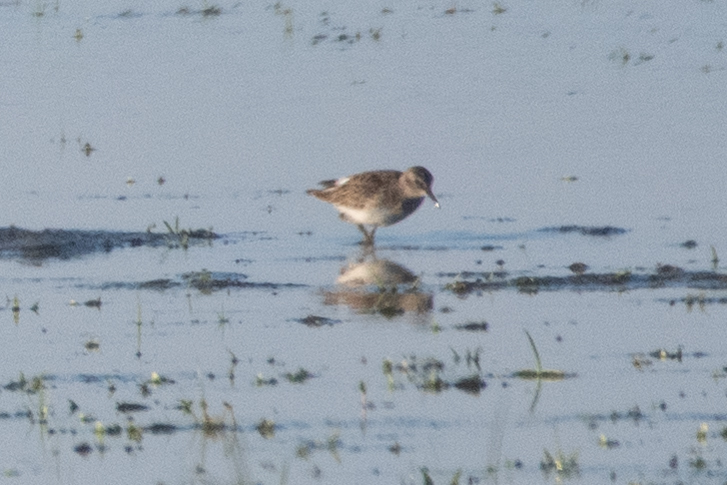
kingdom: Animalia
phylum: Chordata
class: Aves
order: Charadriiformes
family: Scolopacidae
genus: Calidris
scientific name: Calidris minutilla
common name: Least sandpiper
